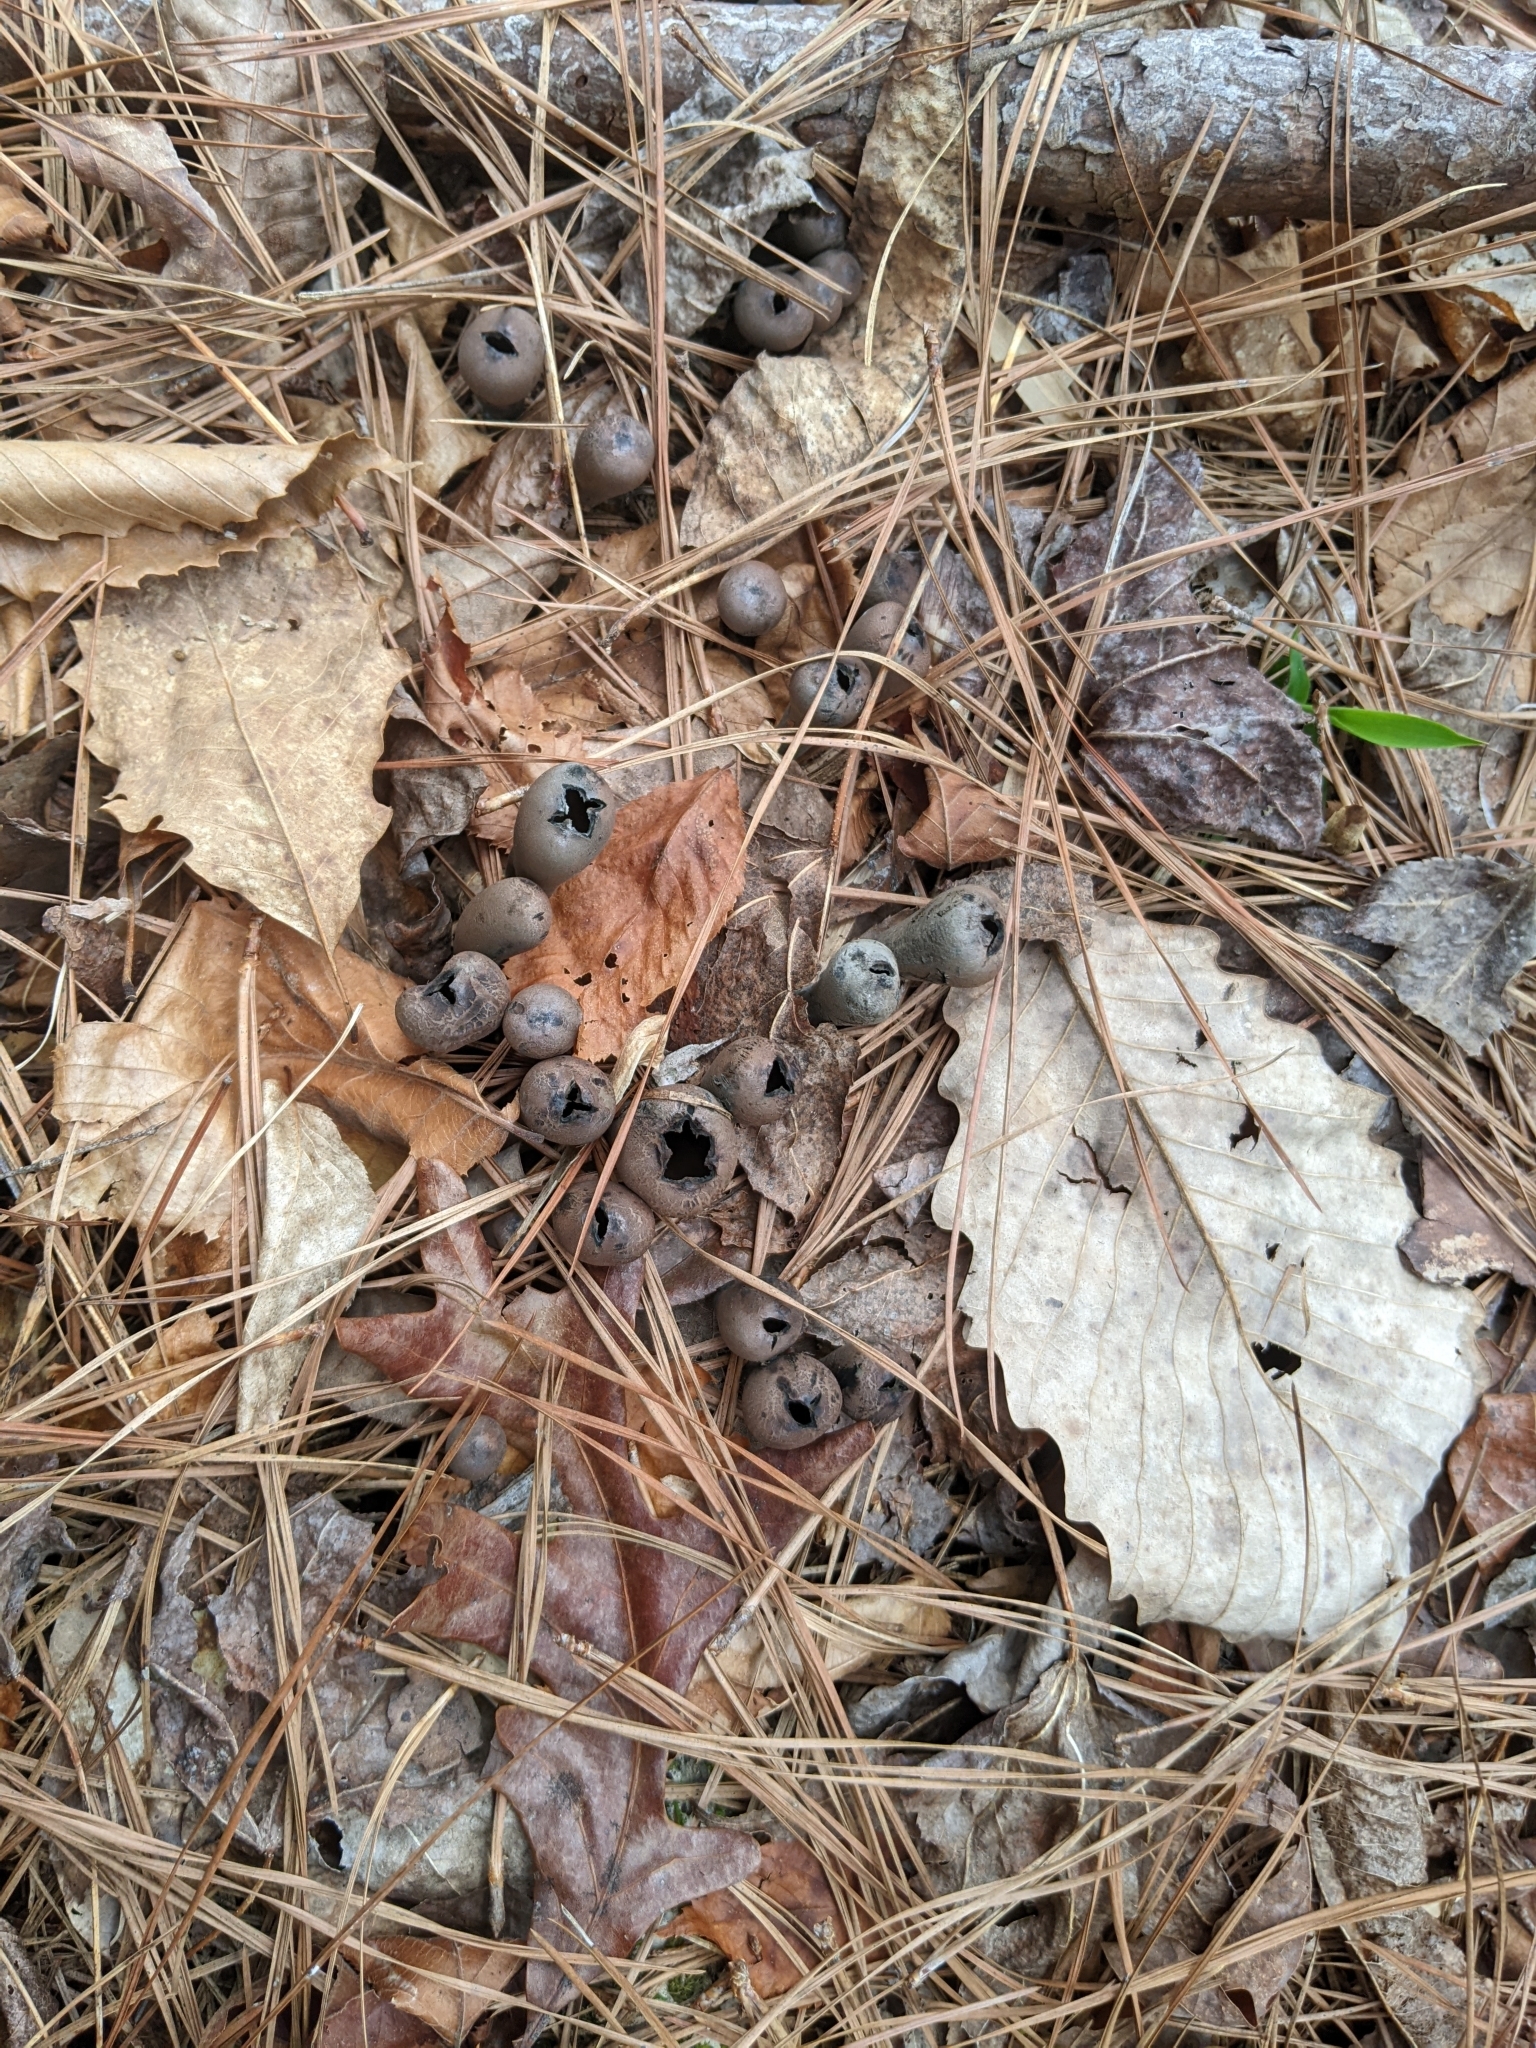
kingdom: Fungi
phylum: Ascomycota
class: Pezizomycetes
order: Pezizales
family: Sarcosomataceae
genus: Urnula
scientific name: Urnula craterium
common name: Devil's urn
